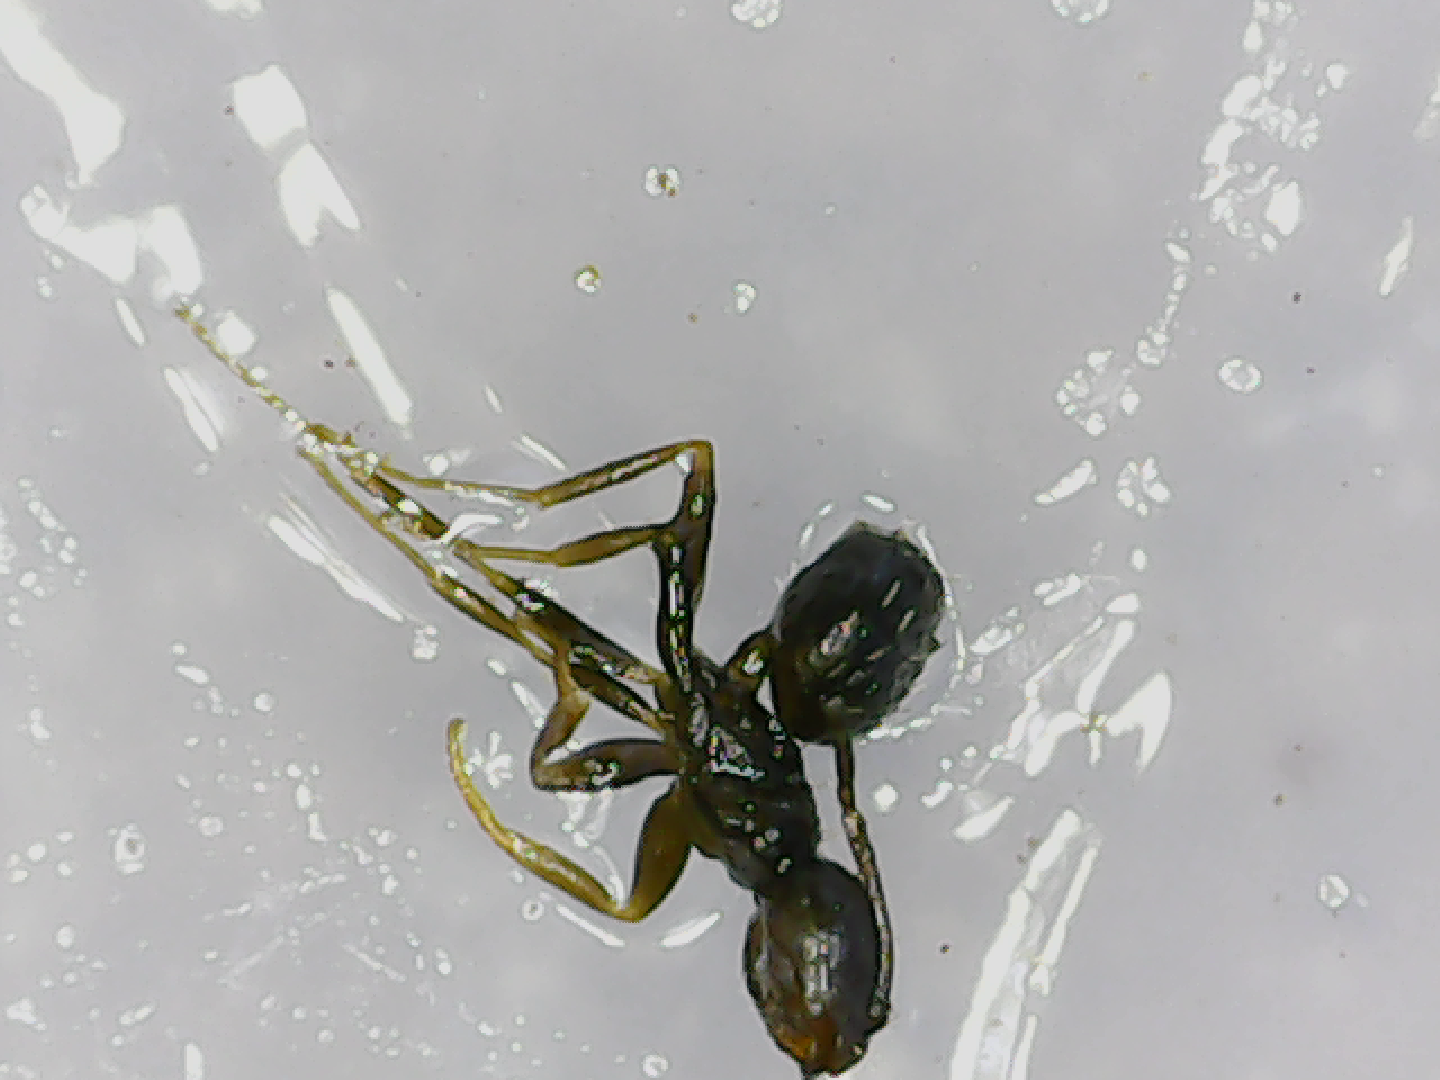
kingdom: Animalia
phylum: Arthropoda
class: Insecta
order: Hymenoptera
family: Formicidae
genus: Brachymyrmex
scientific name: Brachymyrmex
